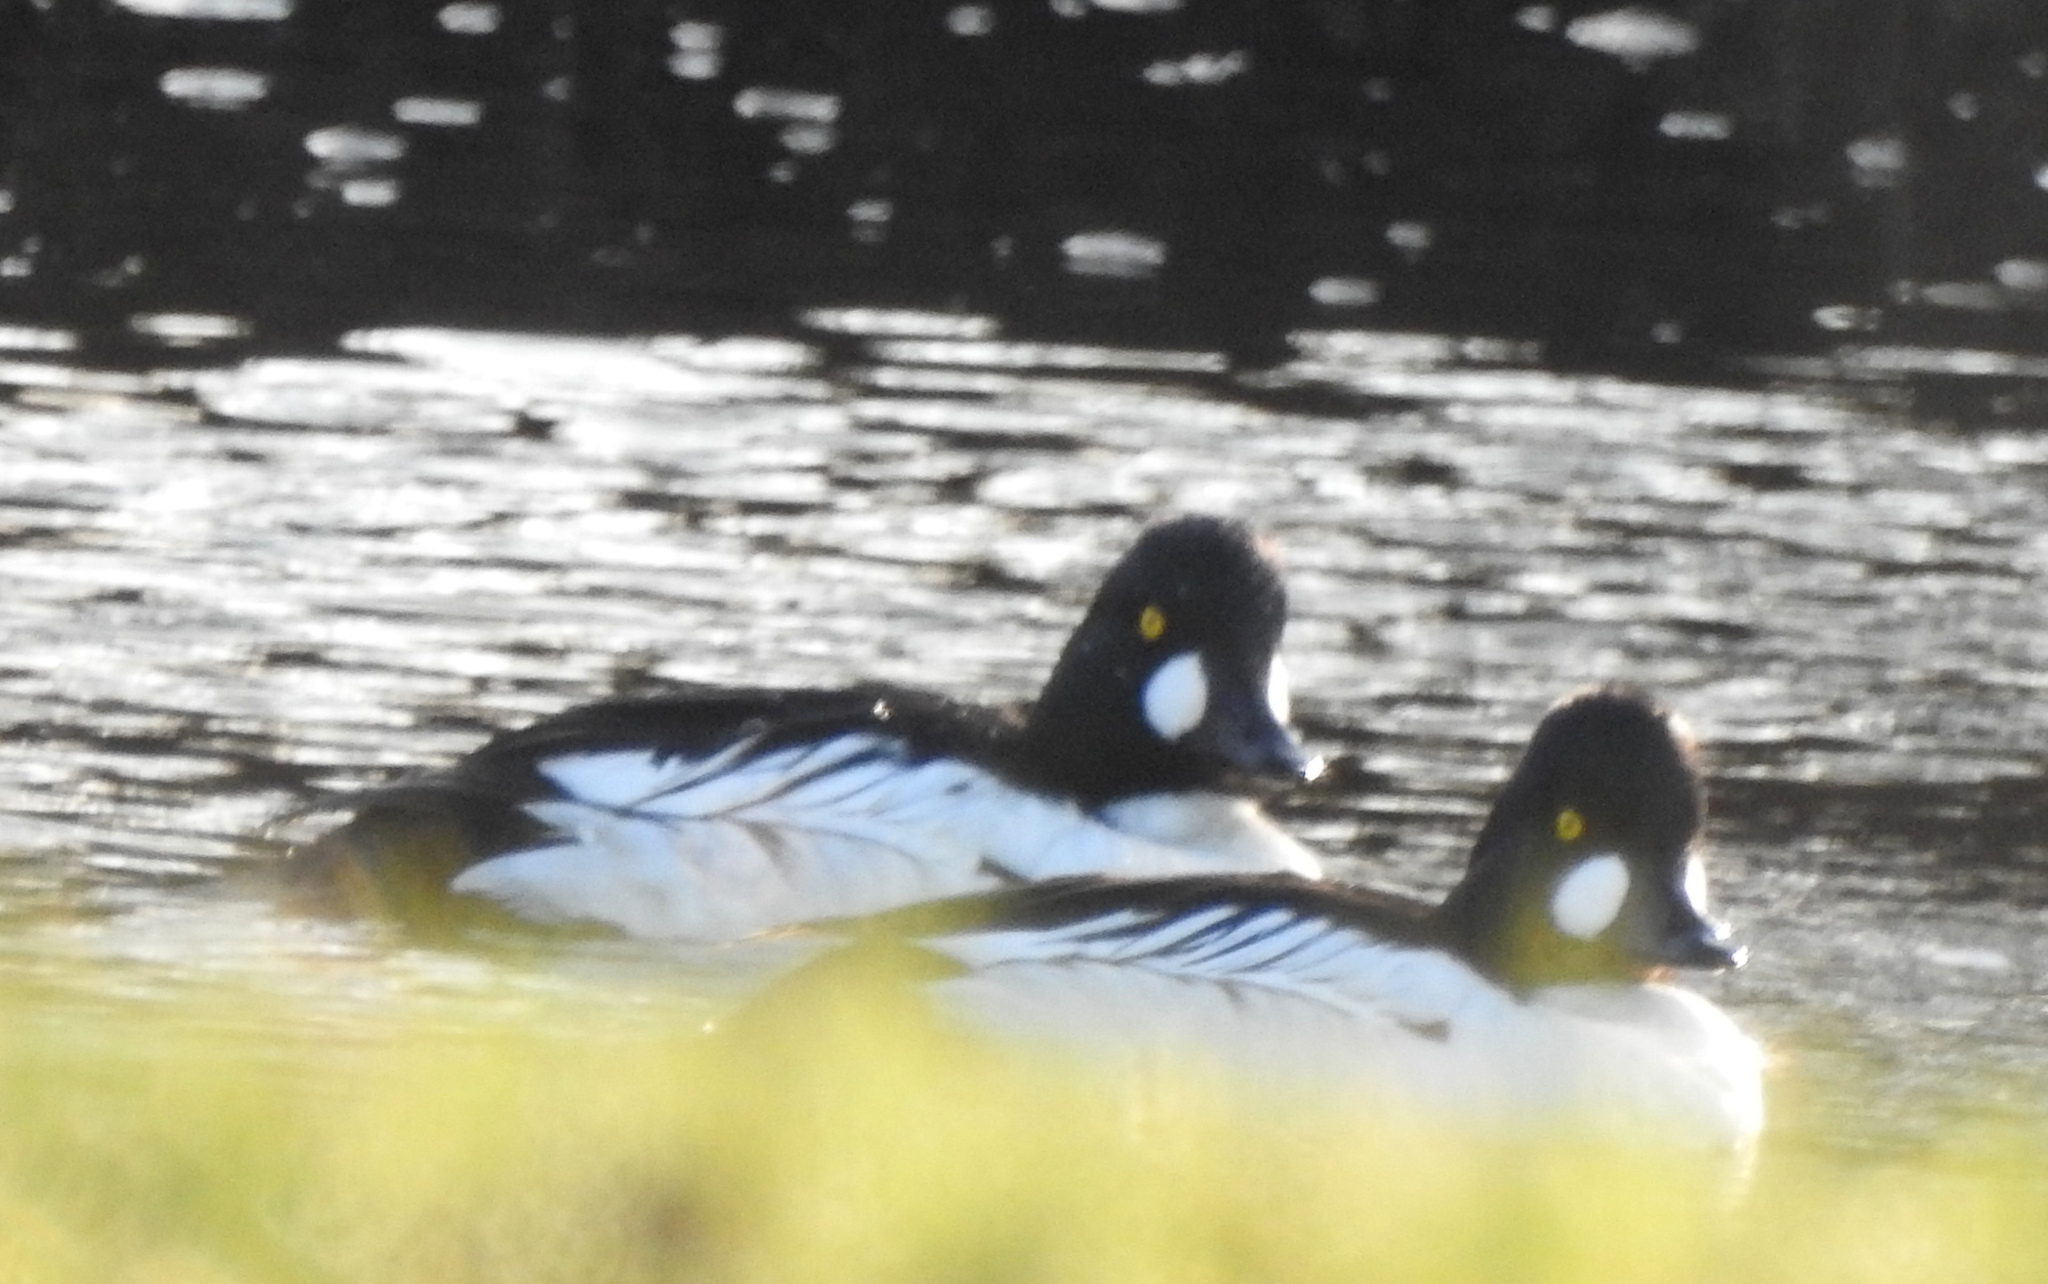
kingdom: Animalia
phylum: Chordata
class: Aves
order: Anseriformes
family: Anatidae
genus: Bucephala
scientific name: Bucephala clangula
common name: Common goldeneye
